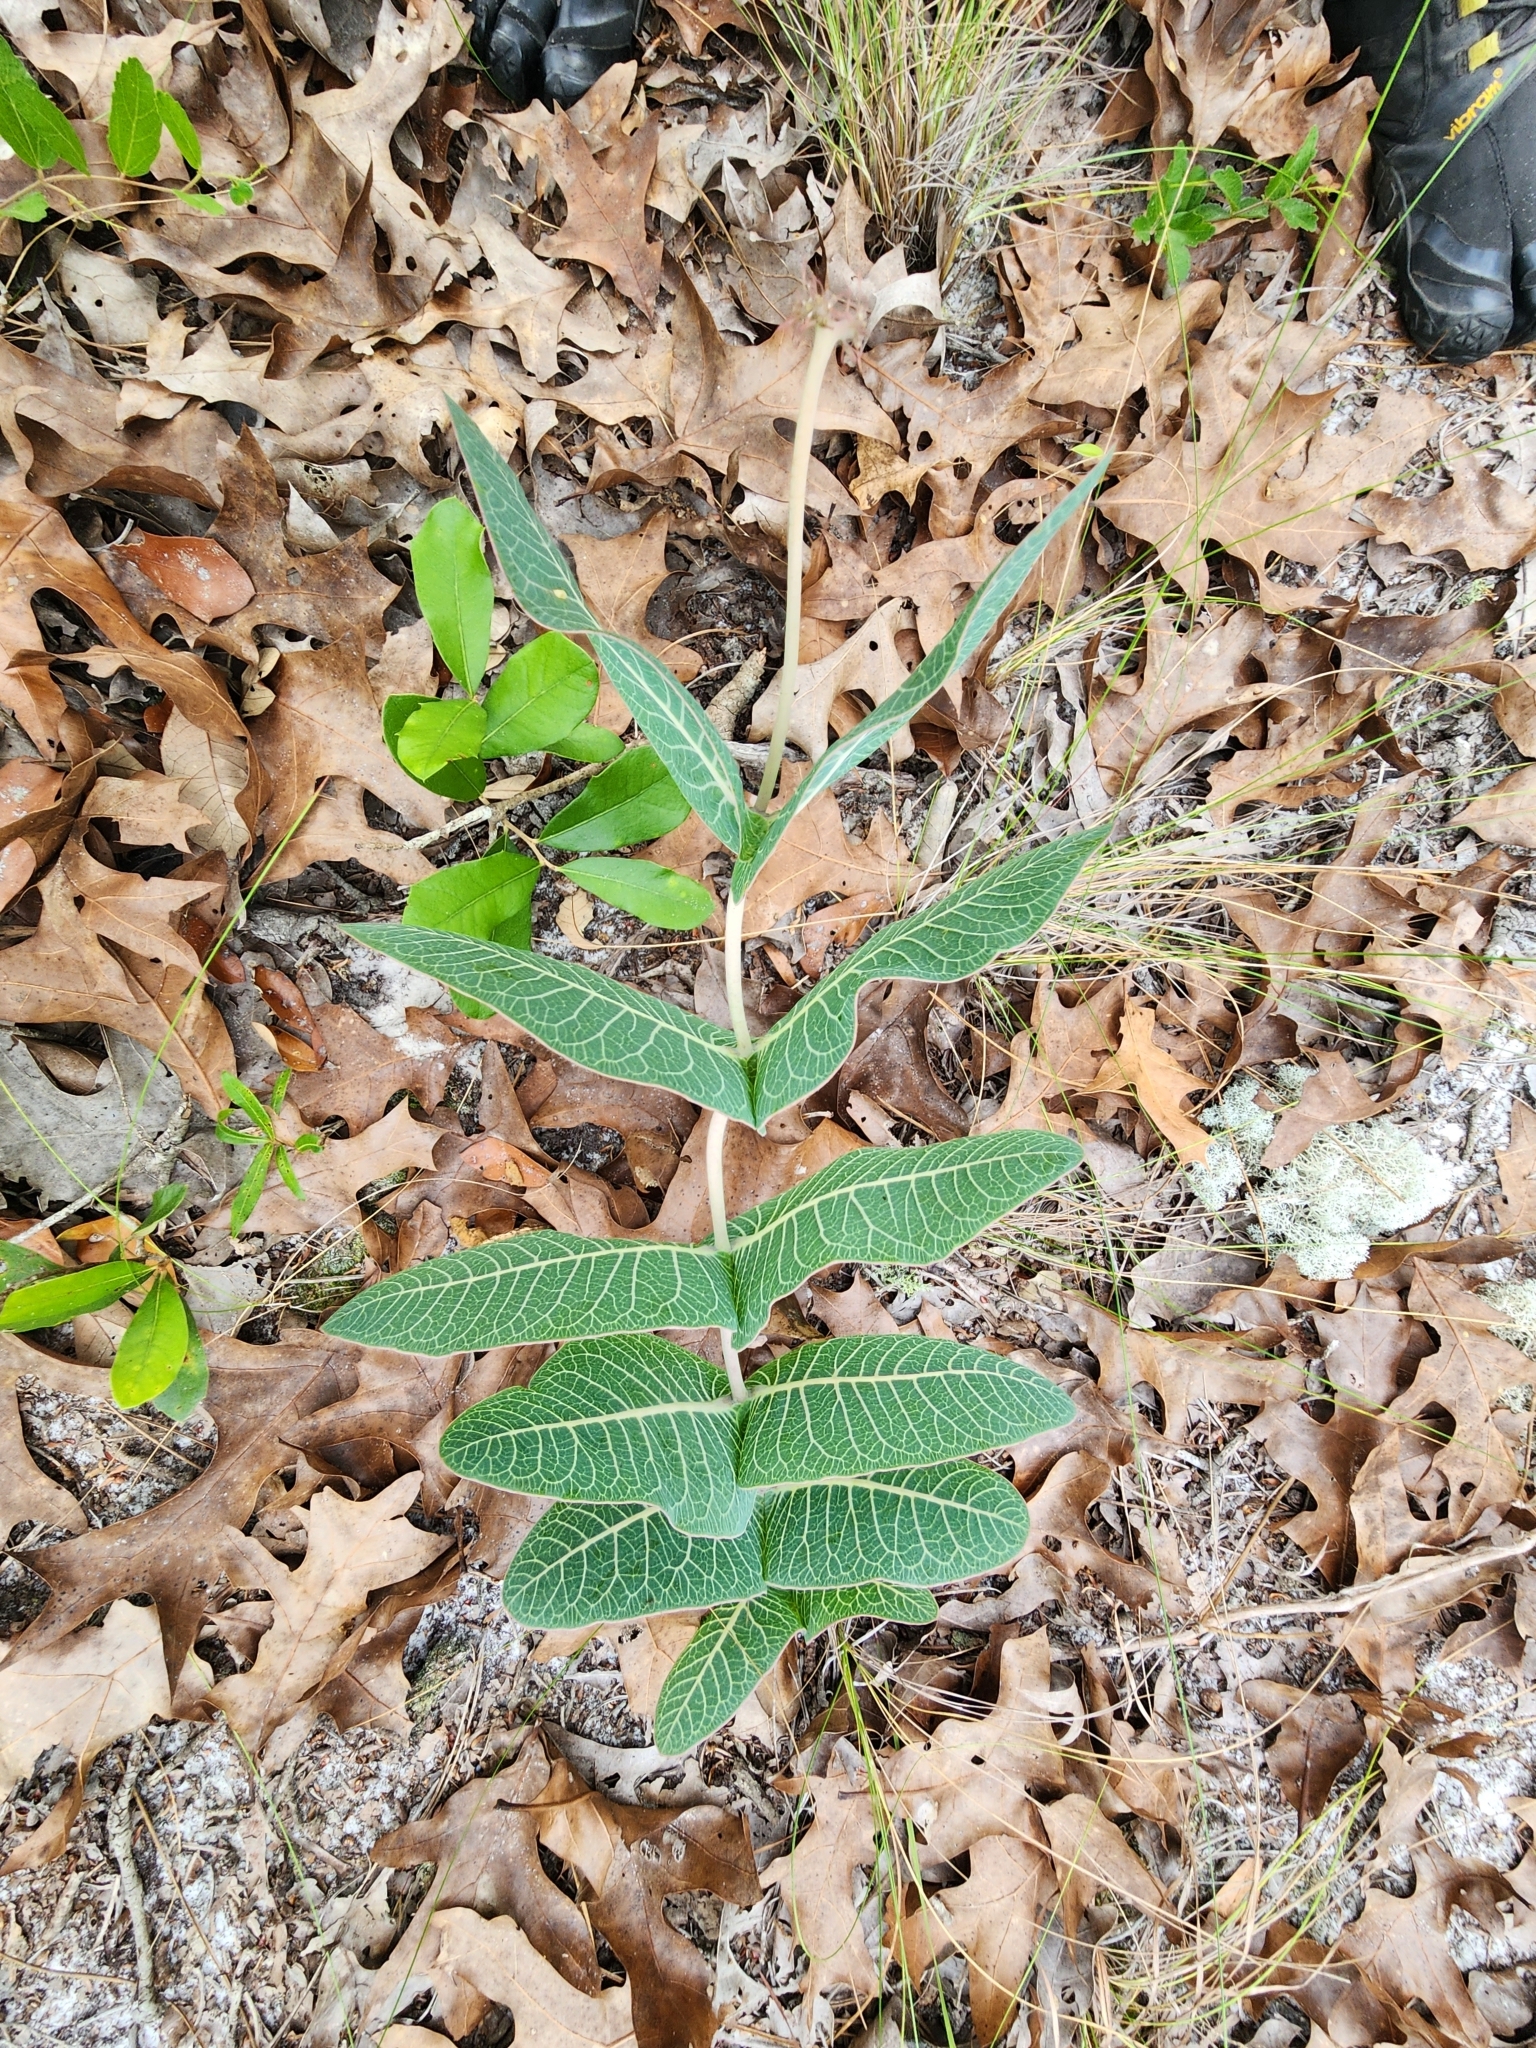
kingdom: Plantae
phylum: Tracheophyta
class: Magnoliopsida
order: Gentianales
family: Apocynaceae
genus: Asclepias
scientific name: Asclepias humistrata
